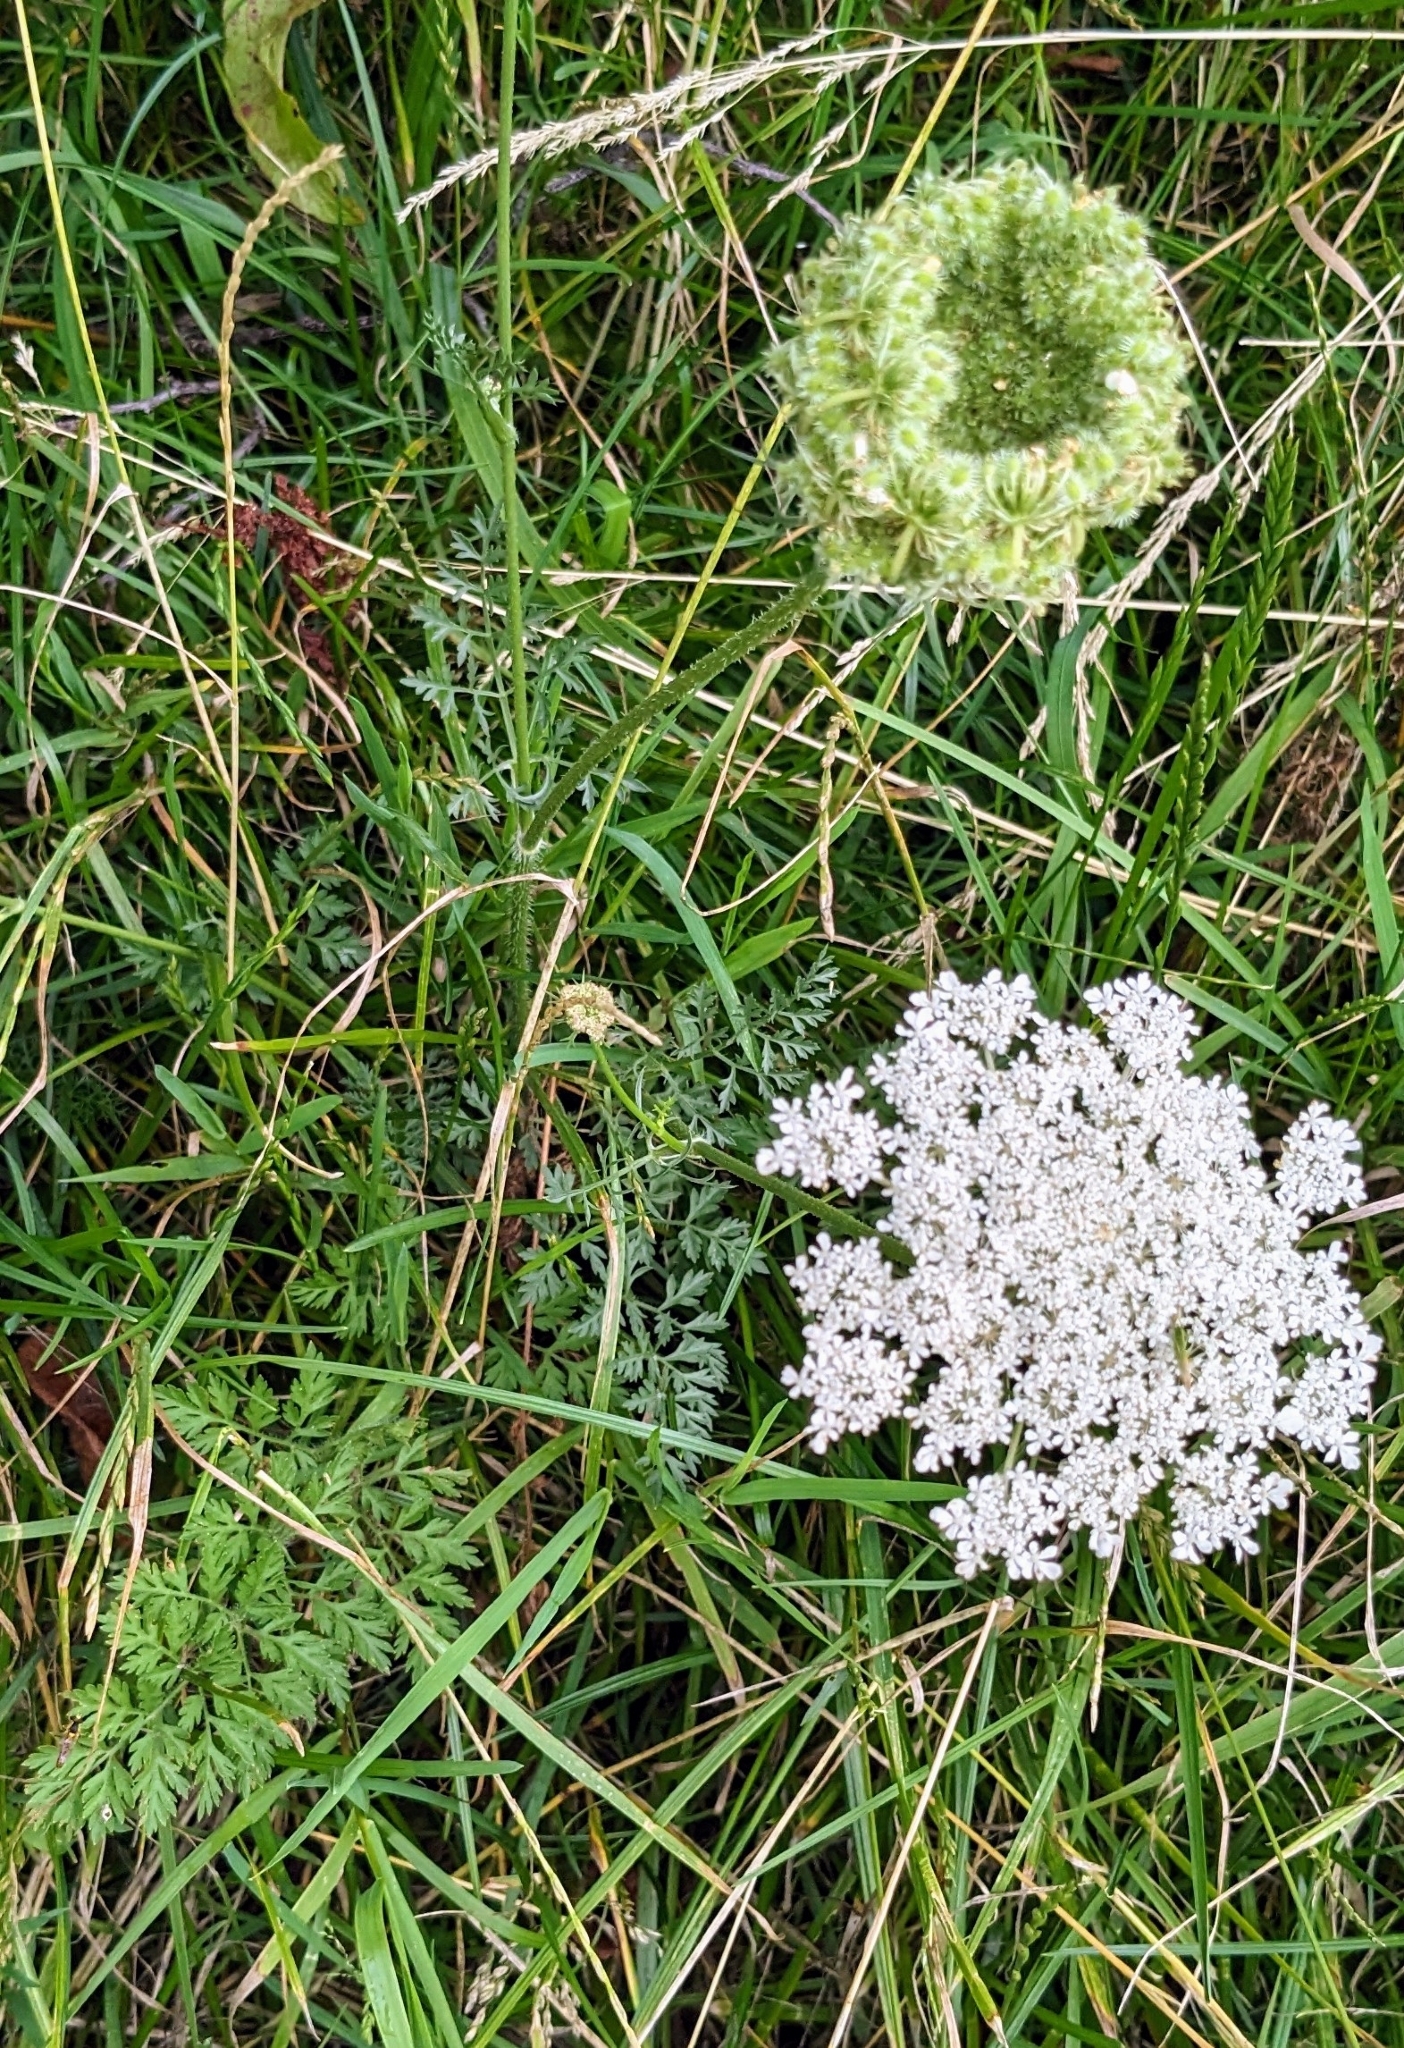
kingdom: Plantae
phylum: Tracheophyta
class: Magnoliopsida
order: Apiales
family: Apiaceae
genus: Daucus
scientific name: Daucus carota
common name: Wild carrot
